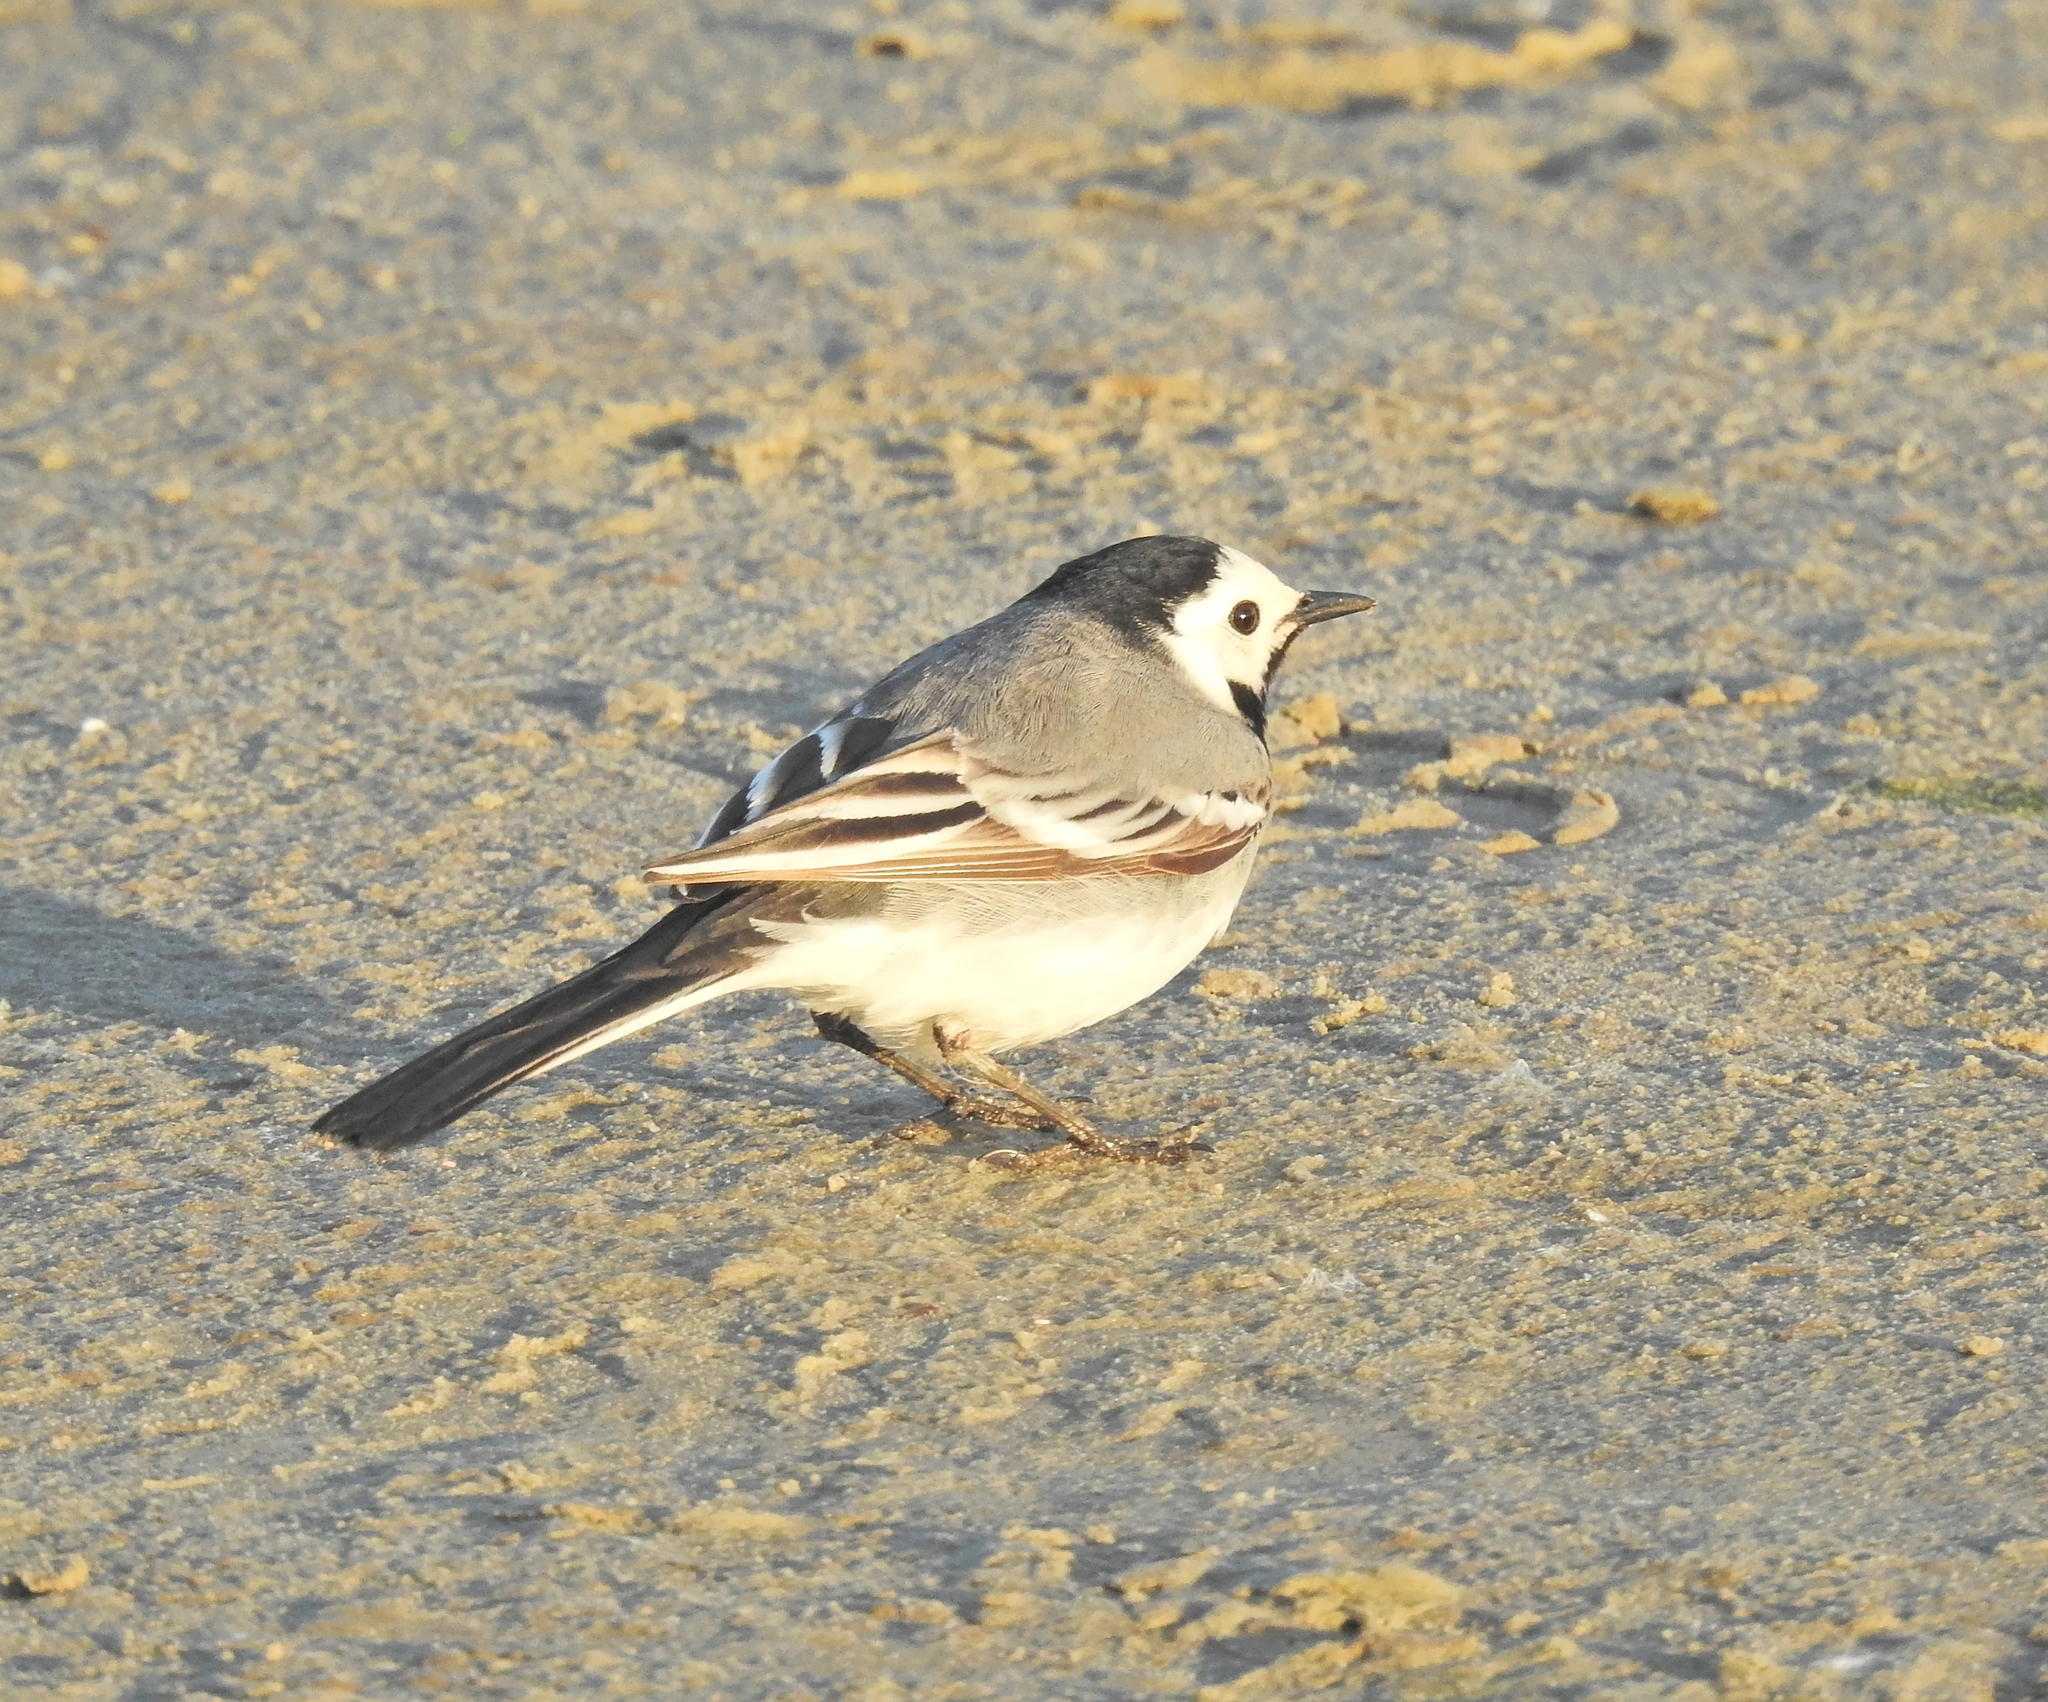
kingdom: Animalia
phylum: Chordata
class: Aves
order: Passeriformes
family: Motacillidae
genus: Motacilla
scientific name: Motacilla alba
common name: White wagtail
